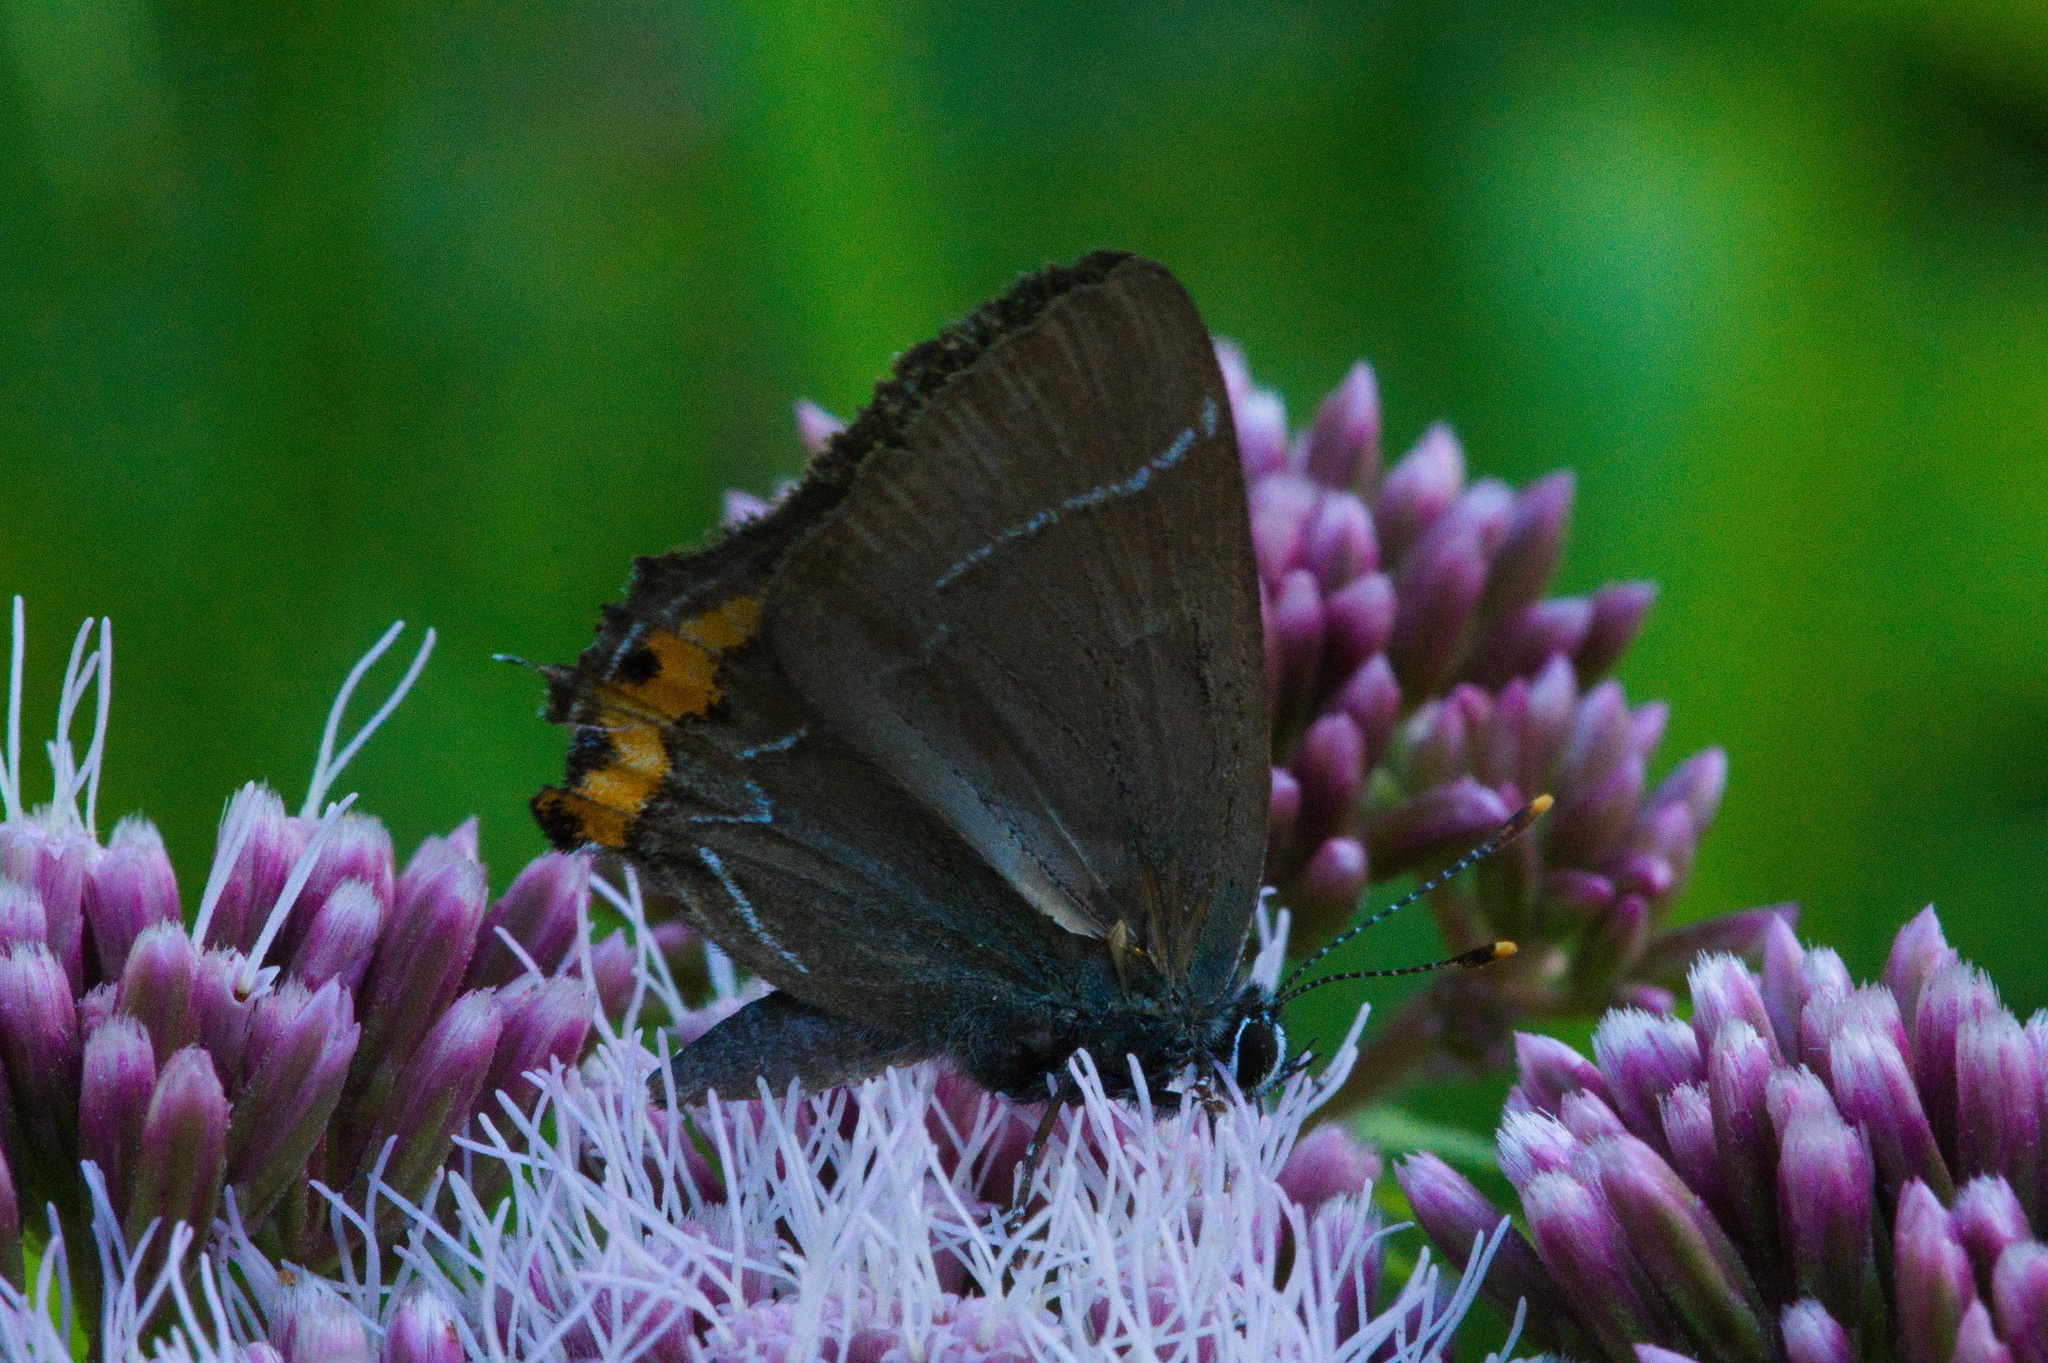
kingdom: Animalia
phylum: Arthropoda
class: Insecta
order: Lepidoptera
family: Lycaenidae
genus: Satyrium
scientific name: Satyrium w-album
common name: White-letter hairstreak
